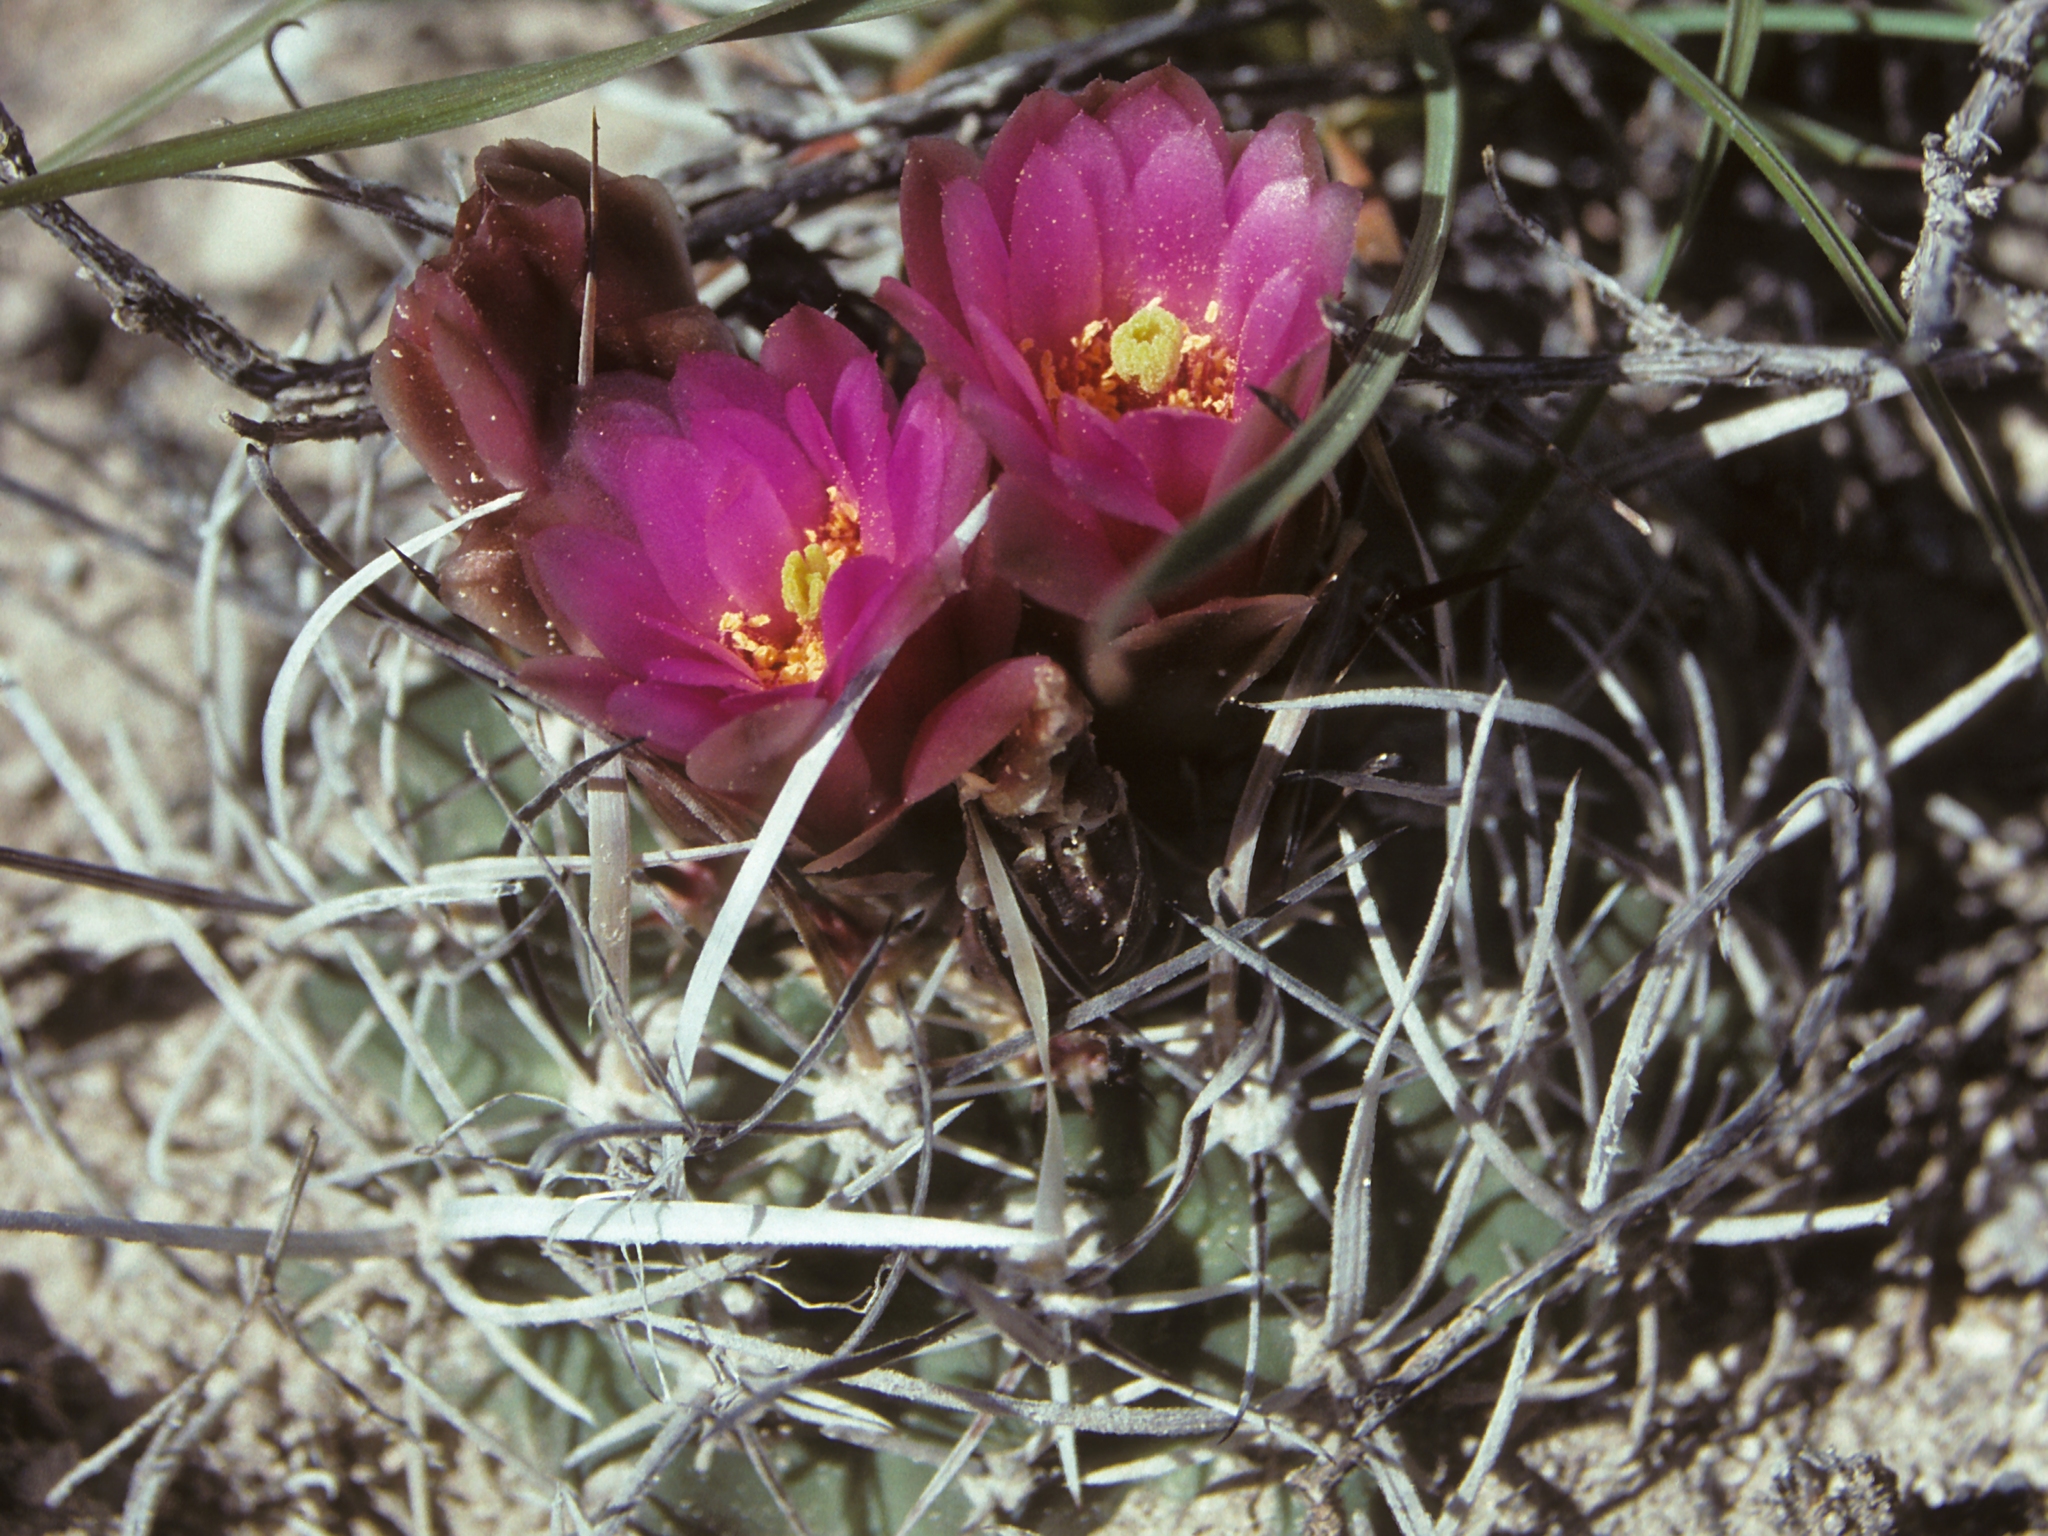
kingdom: Plantae
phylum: Tracheophyta
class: Magnoliopsida
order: Caryophyllales
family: Cactaceae
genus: Sclerocactus
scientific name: Sclerocactus blainei
